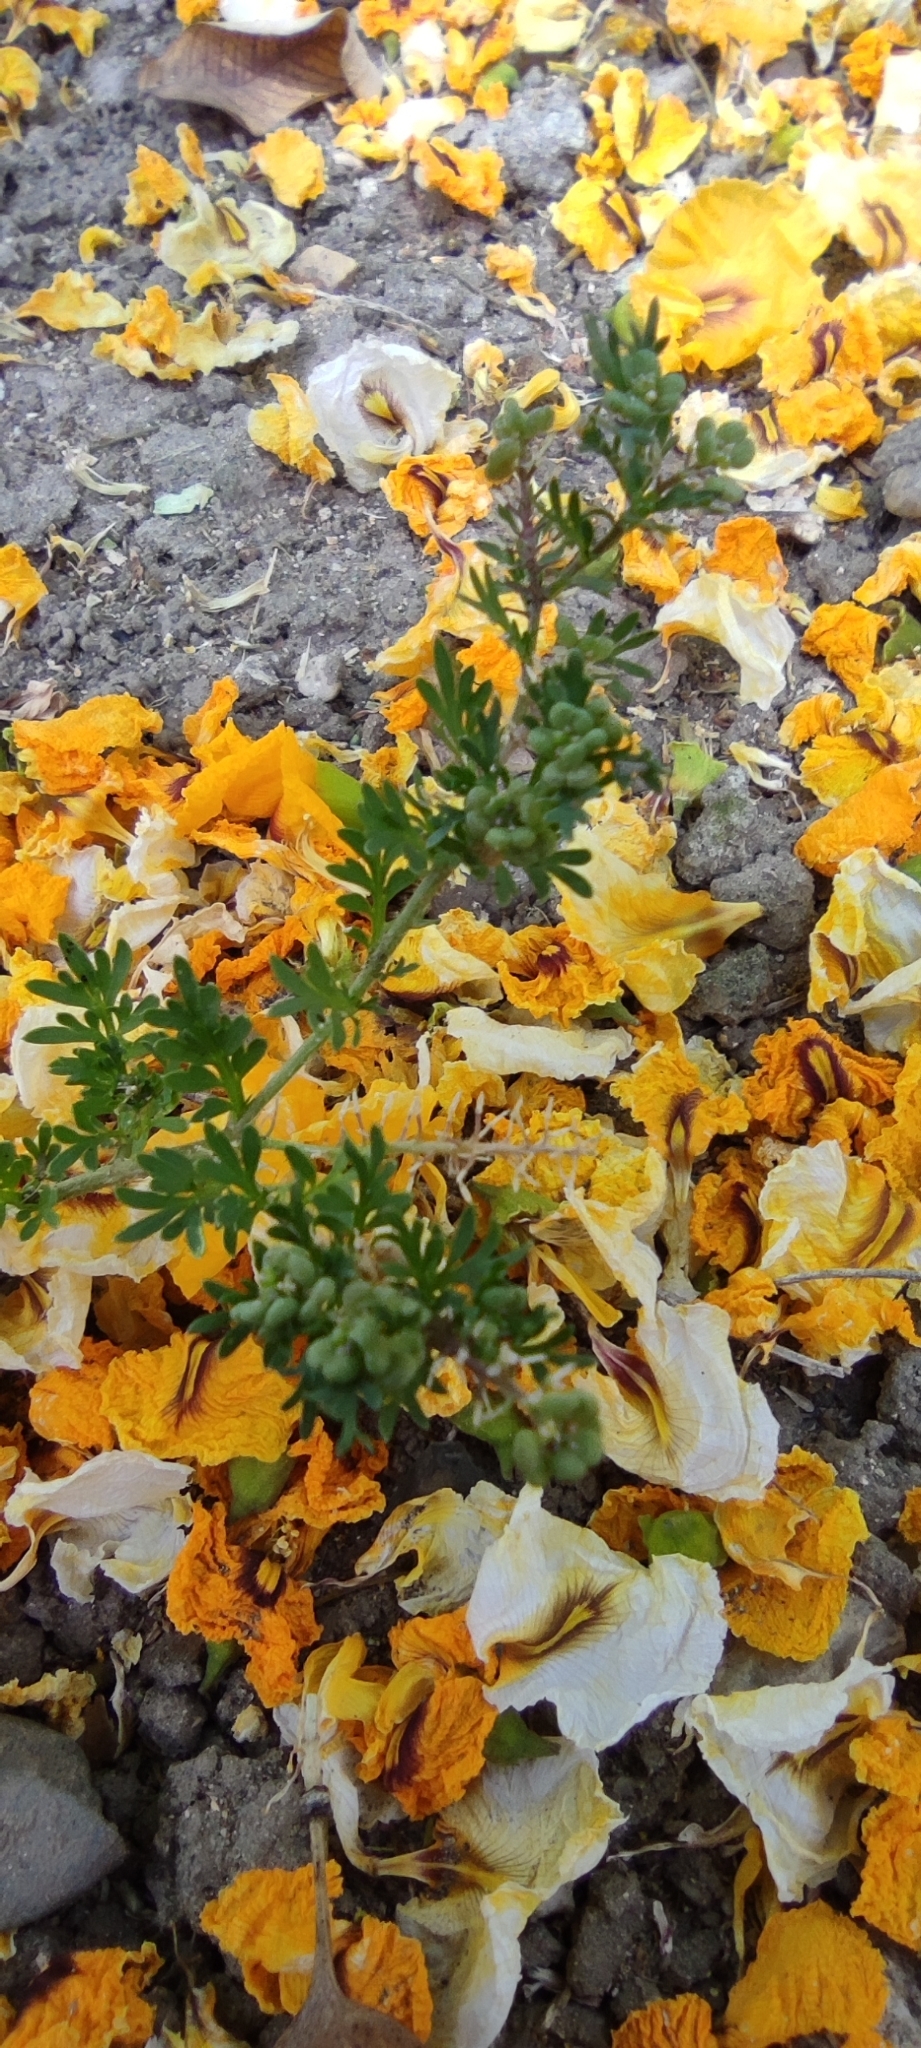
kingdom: Plantae
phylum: Tracheophyta
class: Magnoliopsida
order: Brassicales
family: Brassicaceae
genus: Lepidium
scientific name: Lepidium didymum
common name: Lesser swinecress
